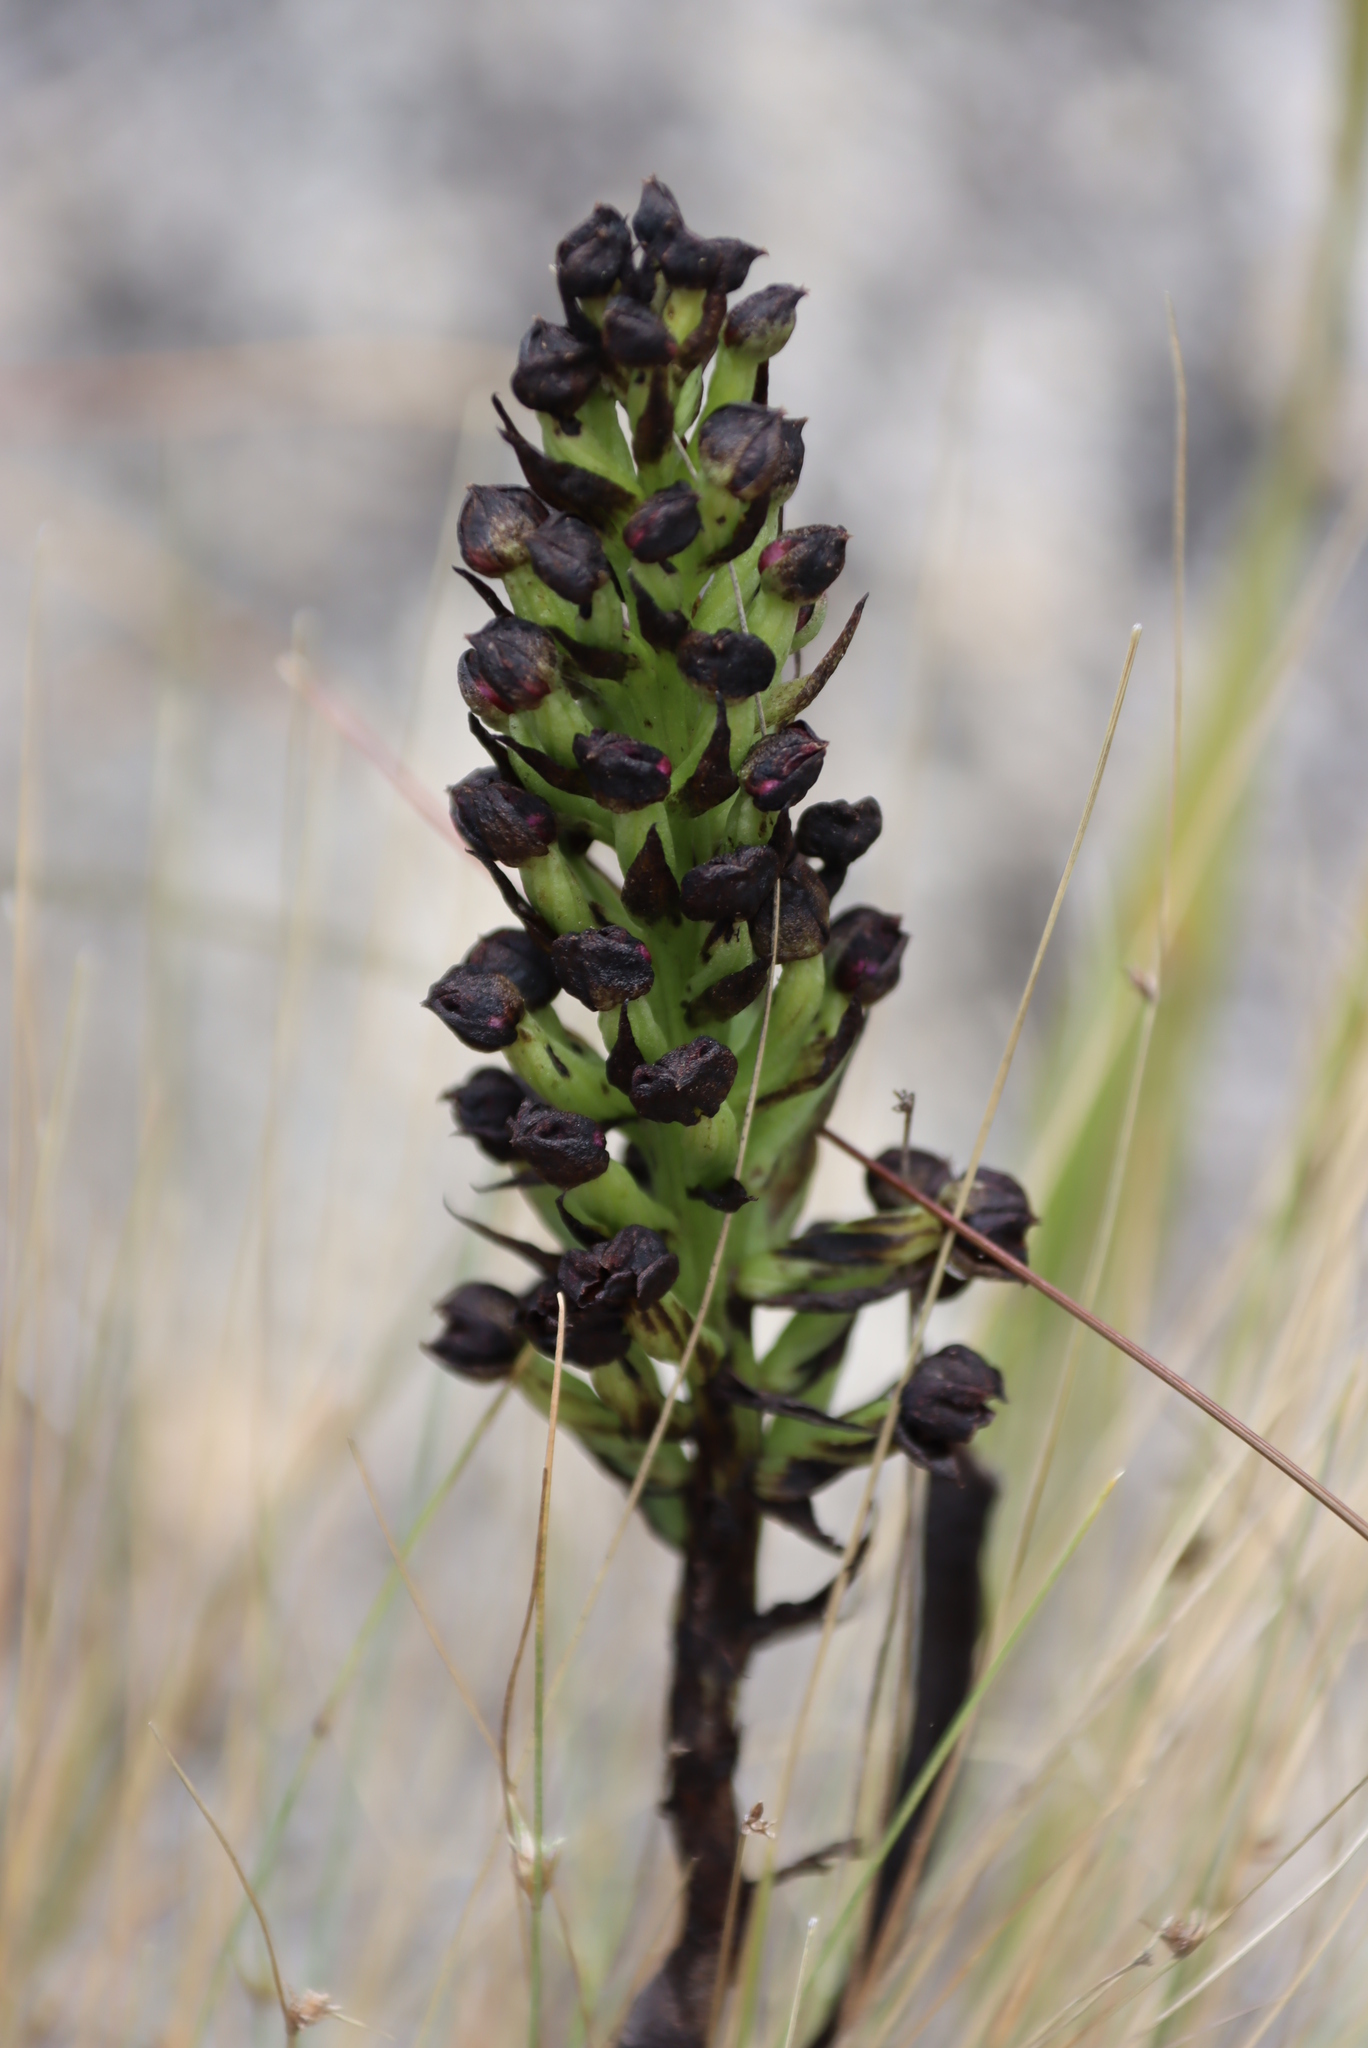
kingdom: Plantae
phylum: Tracheophyta
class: Liliopsida
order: Asparagales
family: Orchidaceae
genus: Evotella
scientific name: Evotella carnosa
